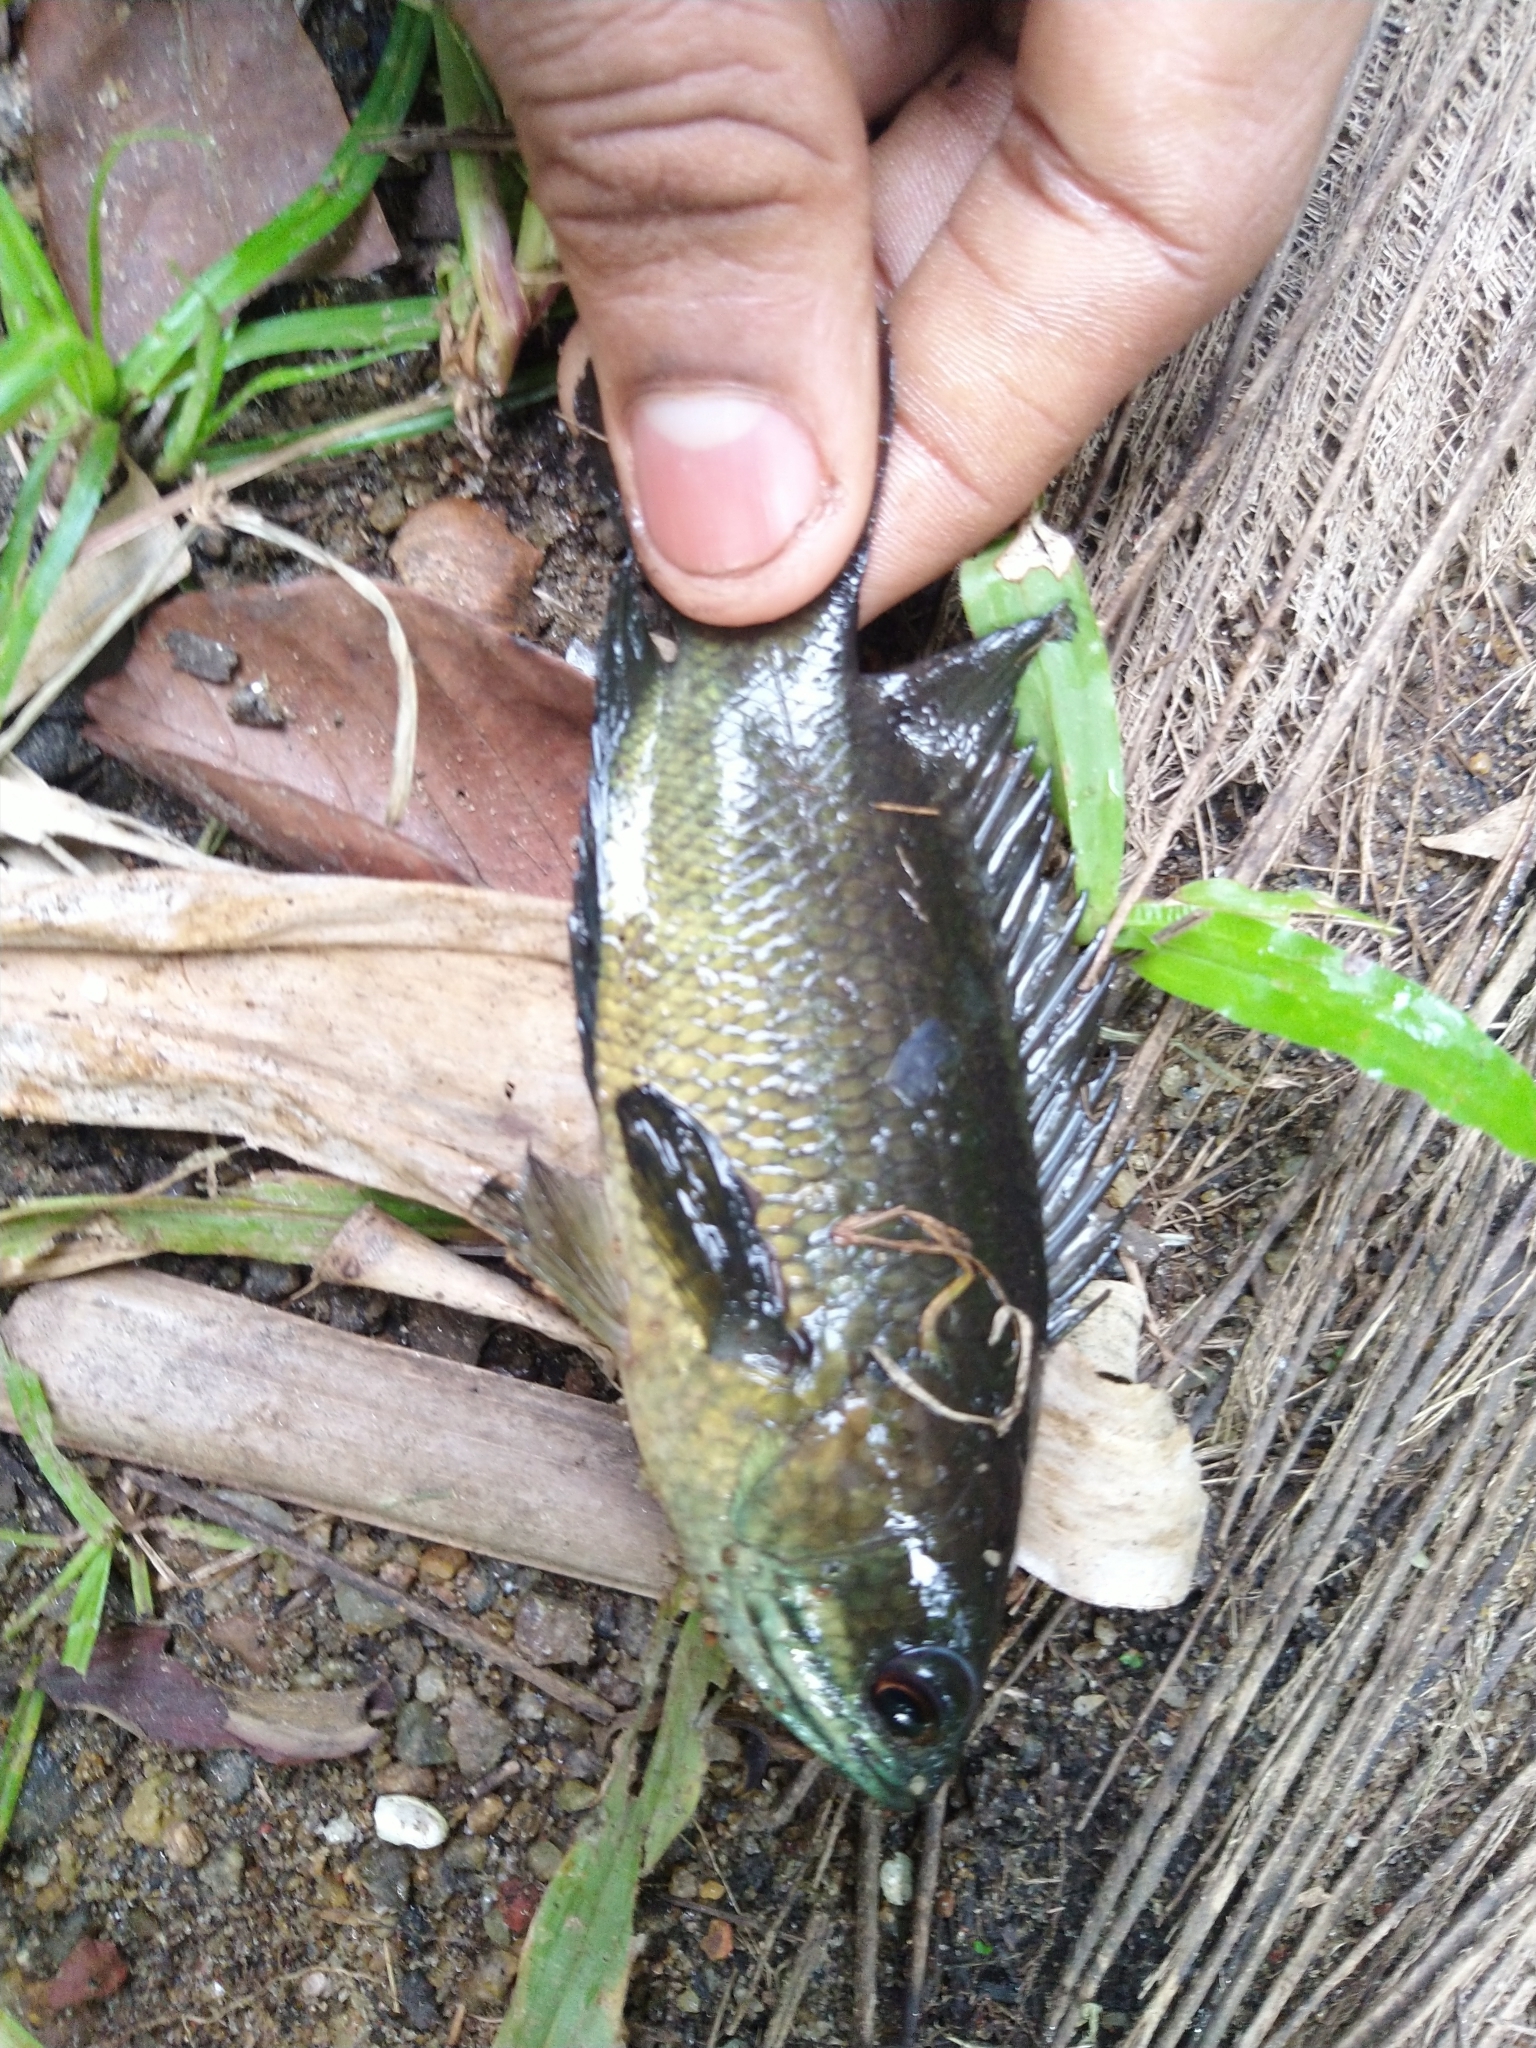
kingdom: Animalia
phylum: Chordata
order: Perciformes
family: Anabantidae
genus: Anabas
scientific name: Anabas testudineus
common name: Climbing perch
